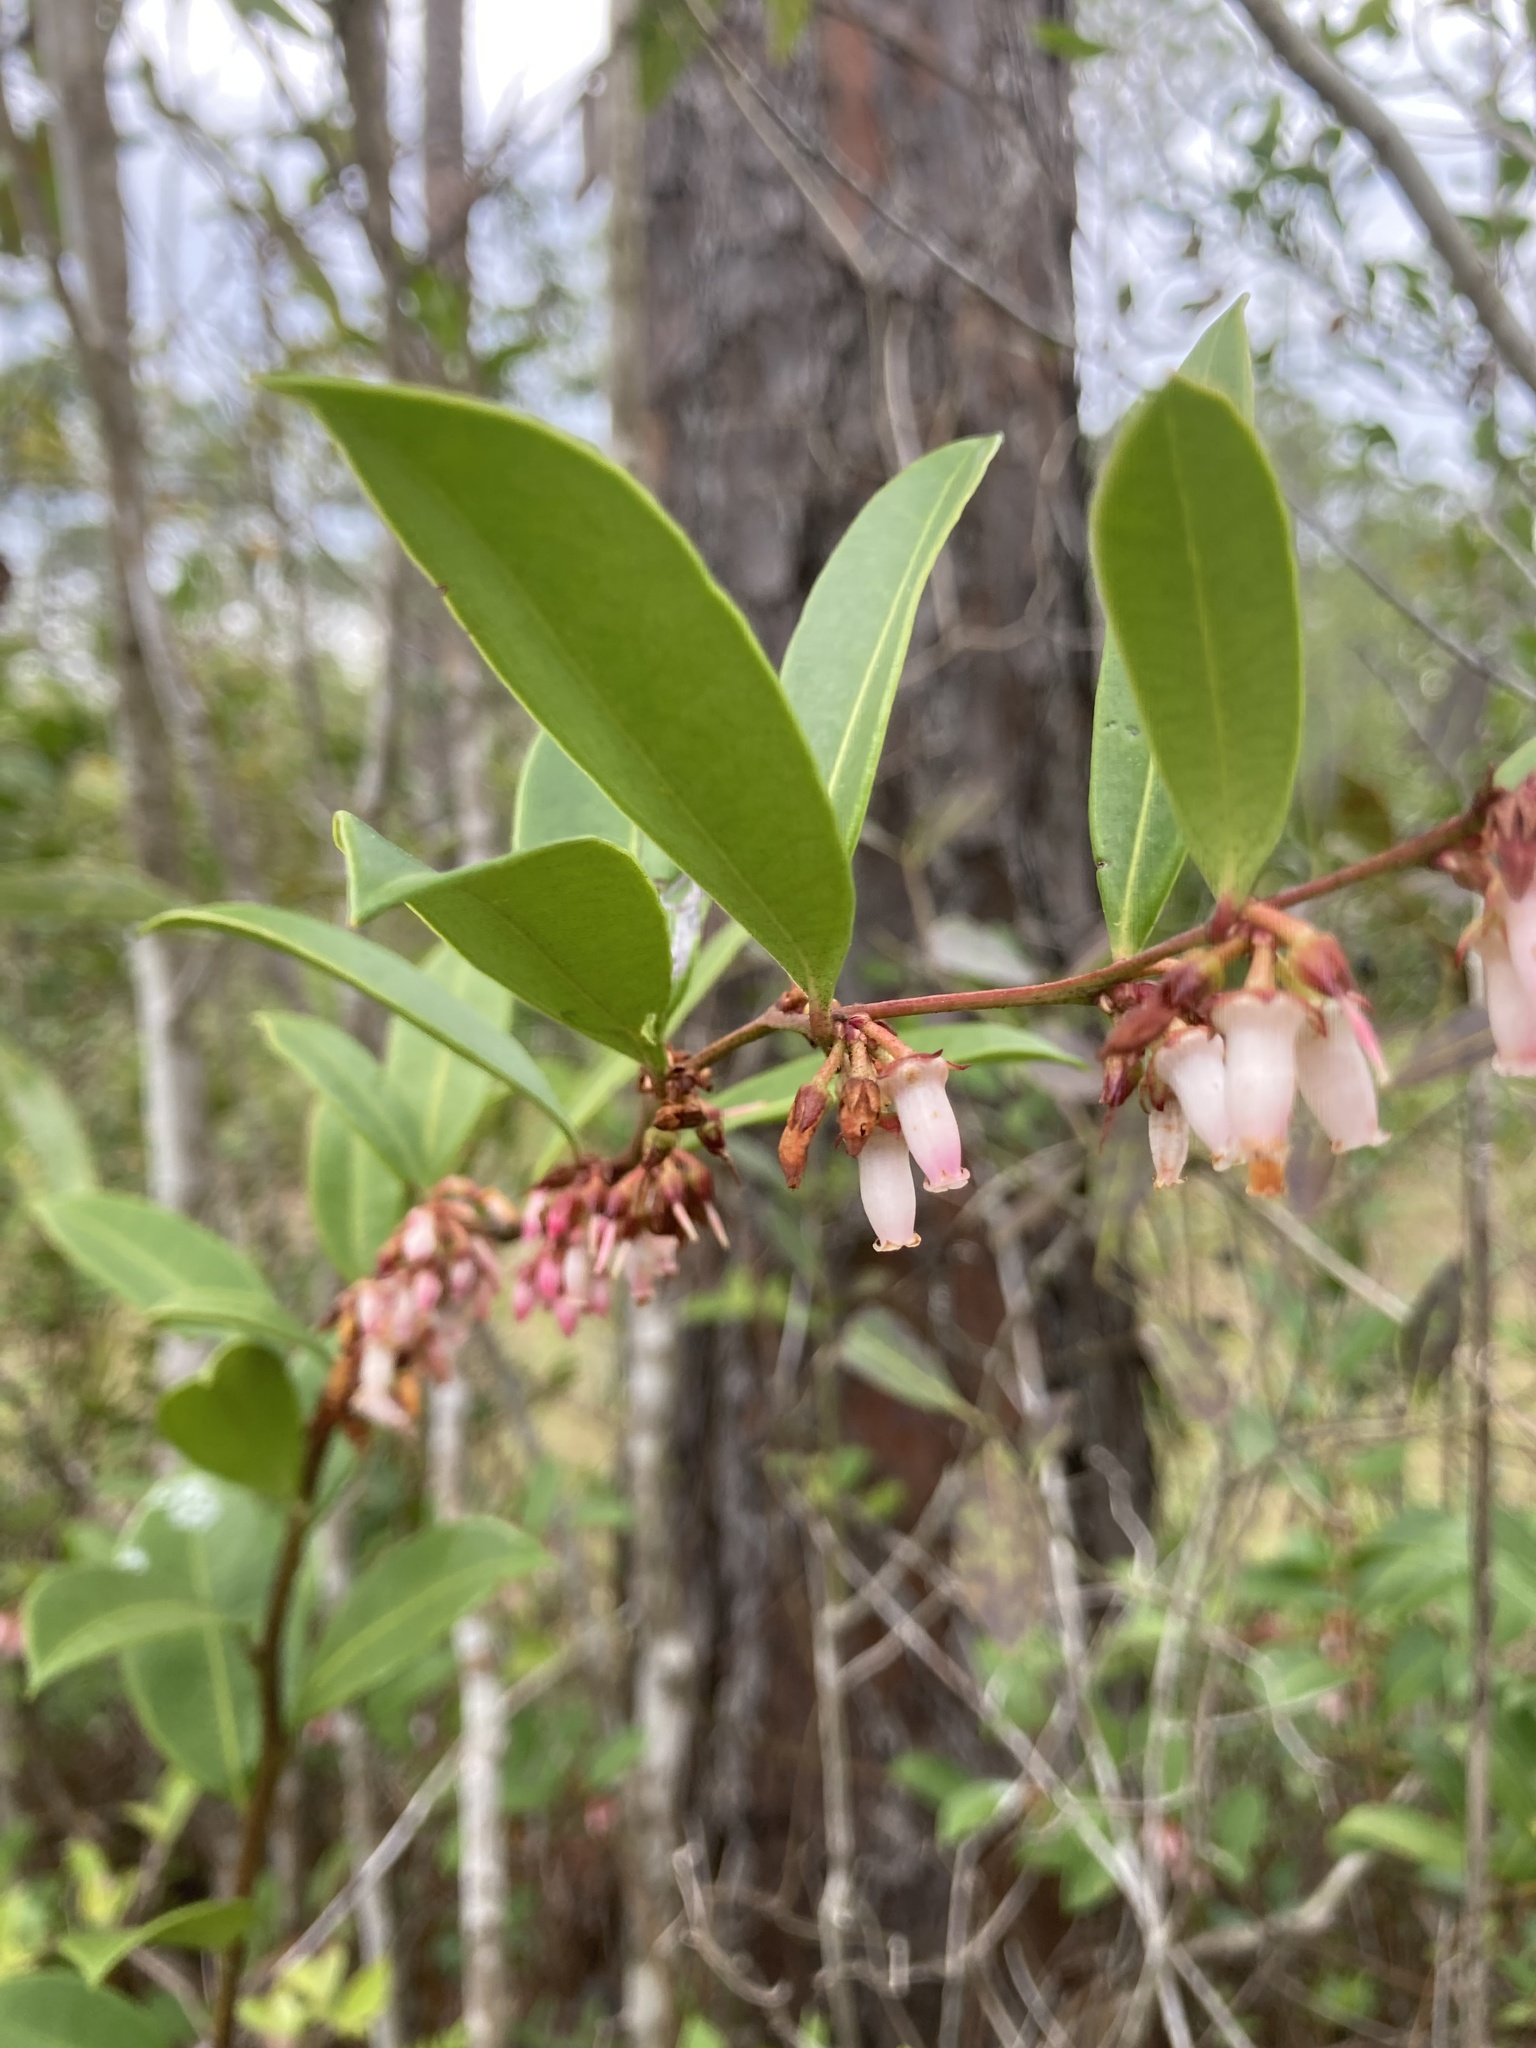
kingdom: Plantae
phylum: Tracheophyta
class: Magnoliopsida
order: Ericales
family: Ericaceae
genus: Lyonia
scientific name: Lyonia lucida
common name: Fetterbush
